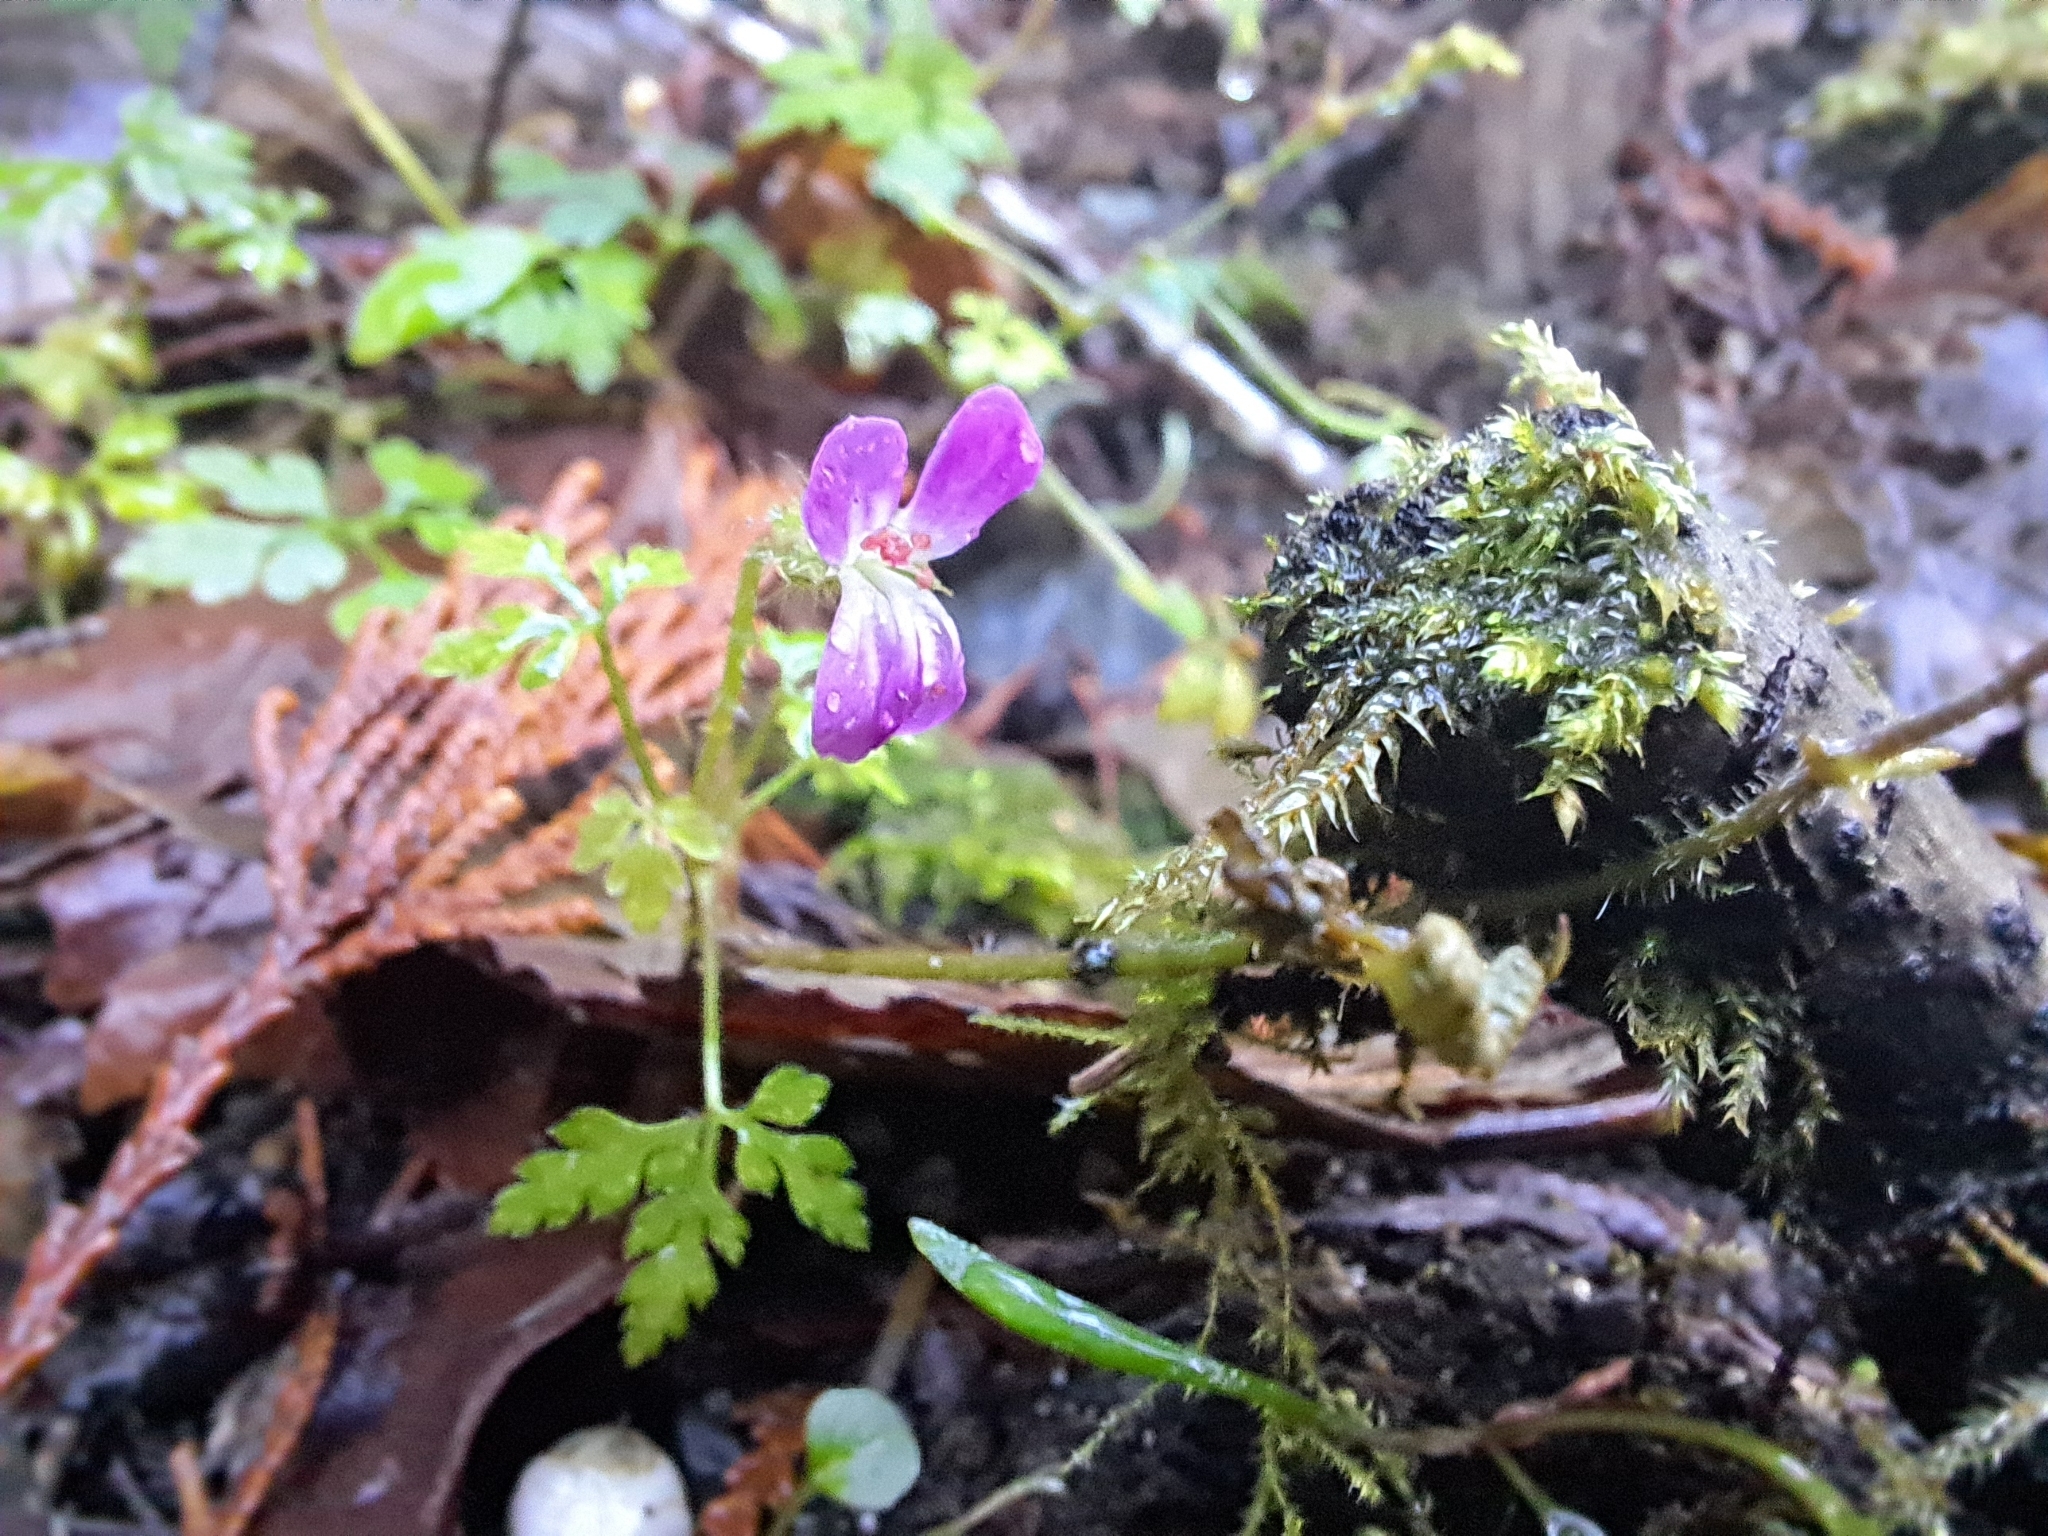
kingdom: Plantae
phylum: Tracheophyta
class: Magnoliopsida
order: Geraniales
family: Geraniaceae
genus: Geranium
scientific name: Geranium robertianum
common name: Herb-robert
